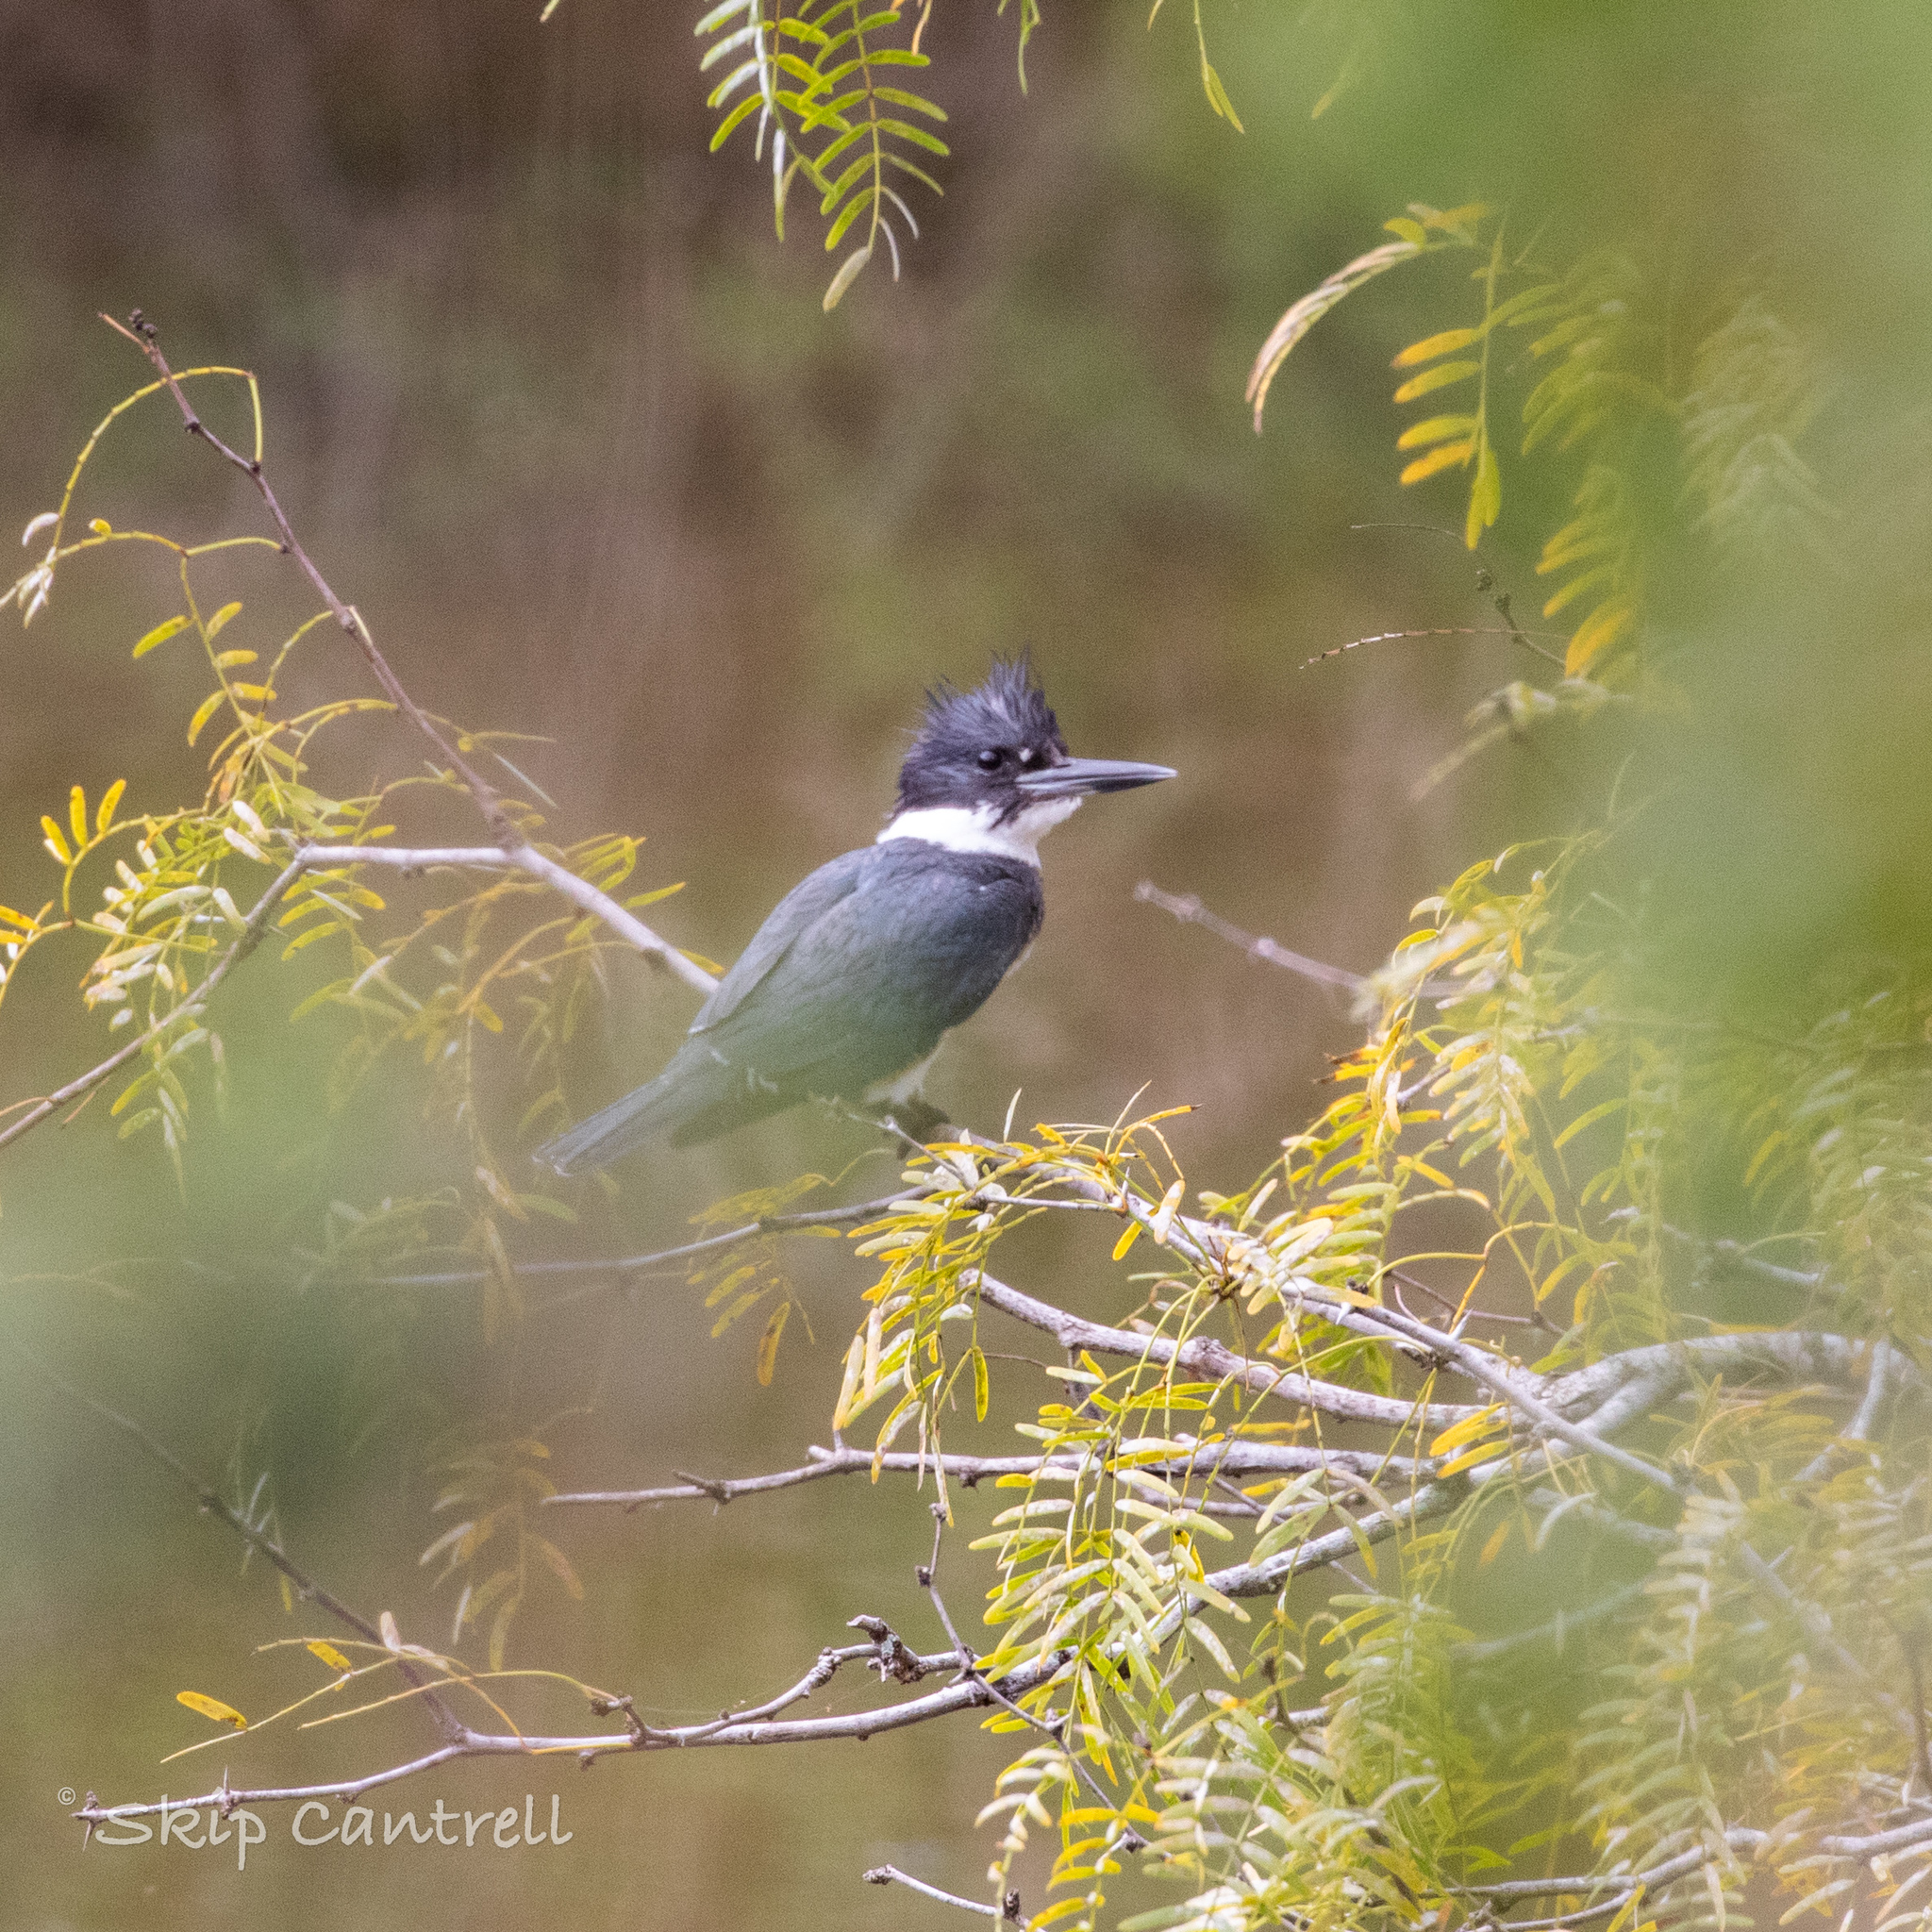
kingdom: Animalia
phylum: Chordata
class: Aves
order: Coraciiformes
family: Alcedinidae
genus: Megaceryle
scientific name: Megaceryle alcyon
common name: Belted kingfisher
